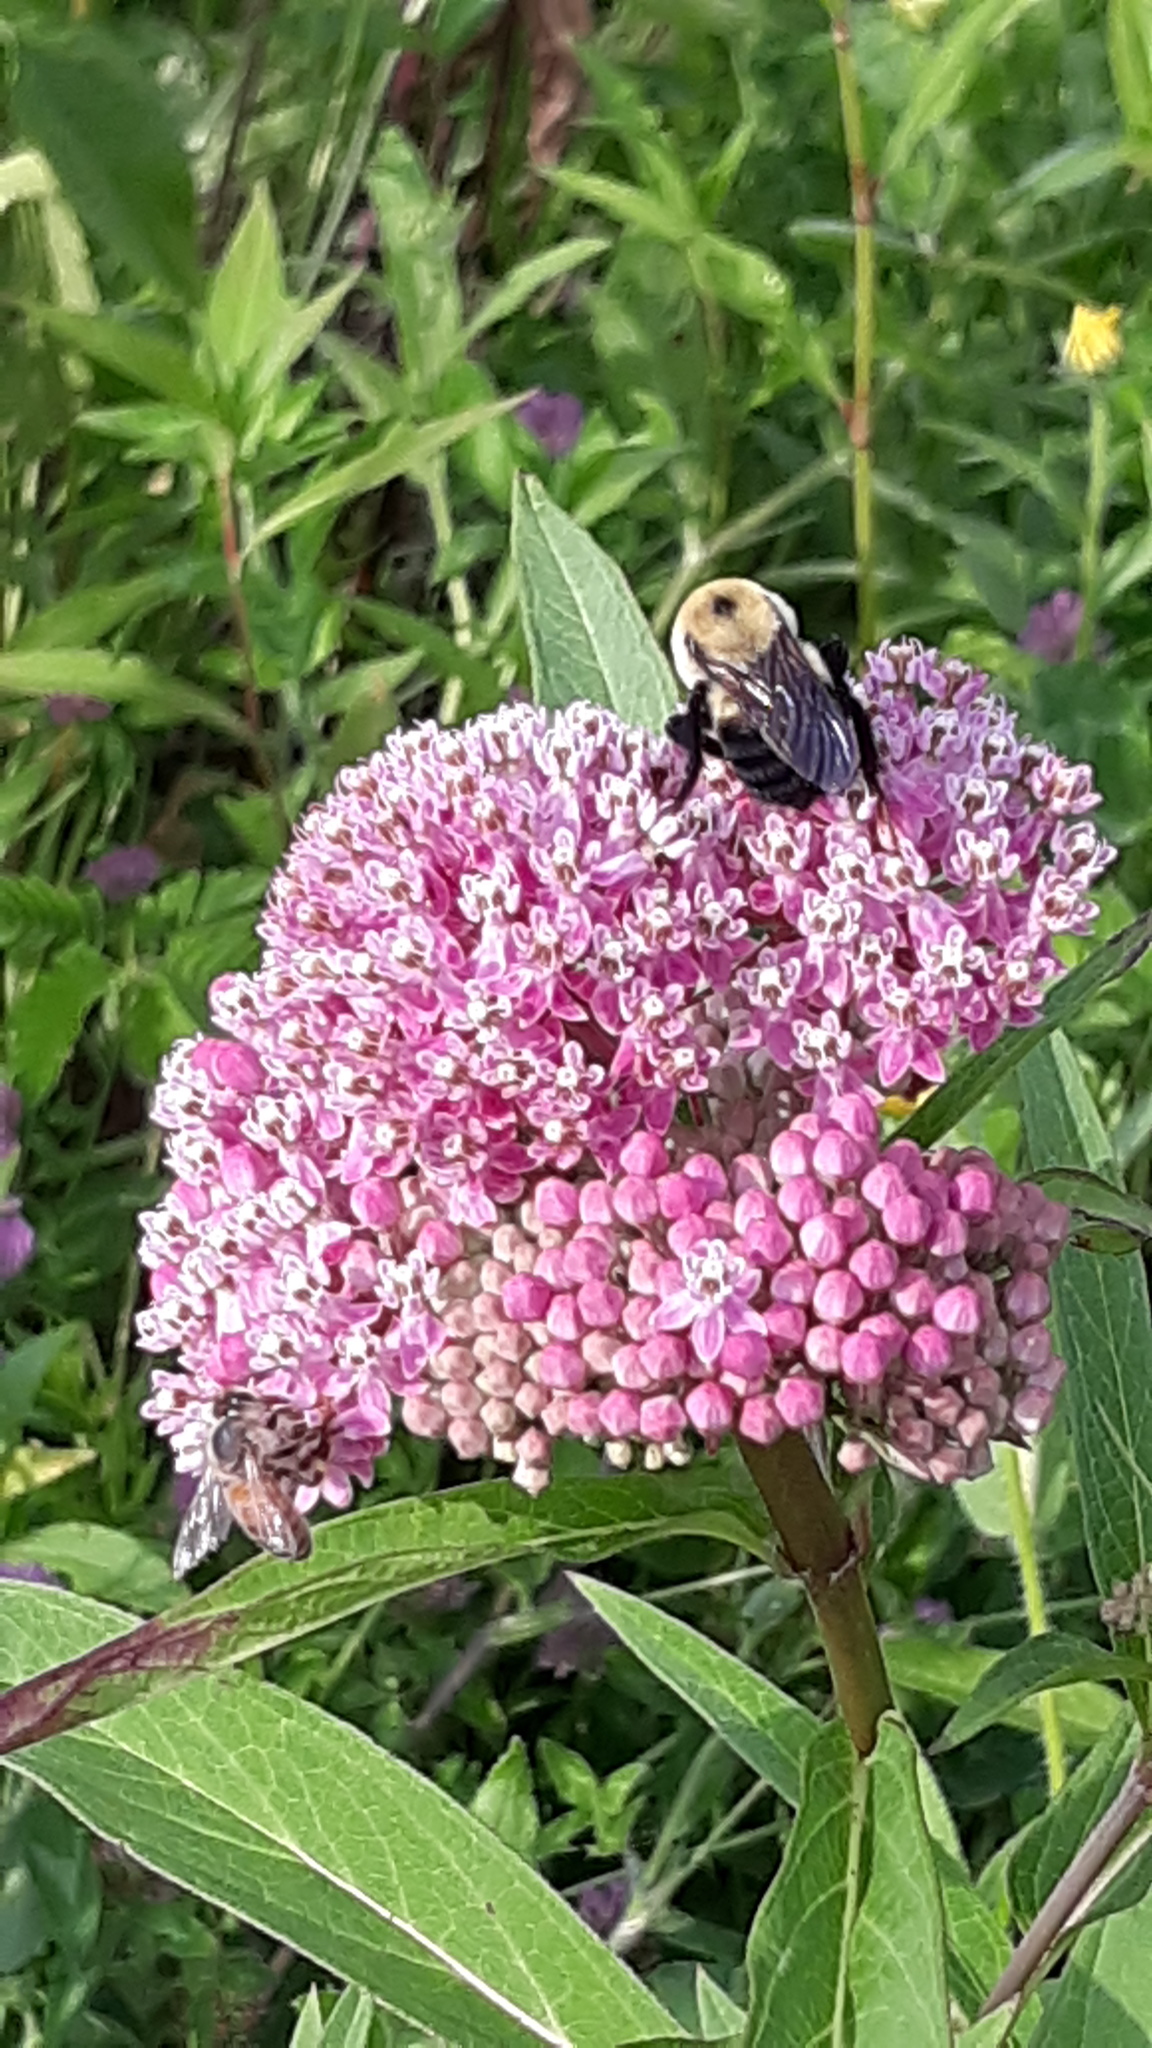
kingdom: Animalia
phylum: Arthropoda
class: Insecta
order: Hymenoptera
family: Apidae
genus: Bombus
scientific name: Bombus griseocollis
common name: Brown-belted bumble bee
